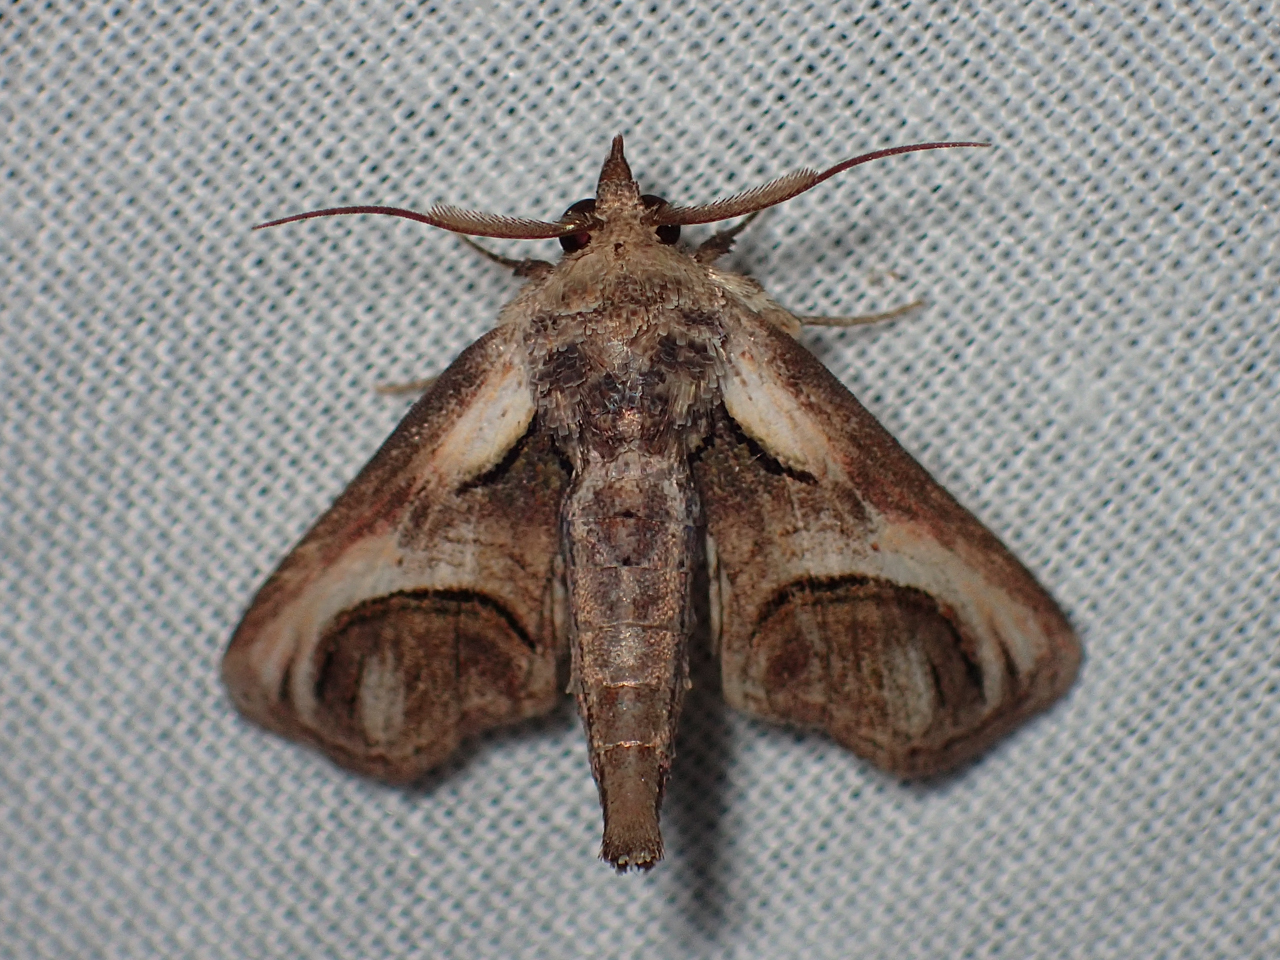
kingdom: Animalia
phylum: Arthropoda
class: Insecta
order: Lepidoptera
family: Euteliidae
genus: Paectes
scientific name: Paectes oculatrix
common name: Eyed paectes moth
